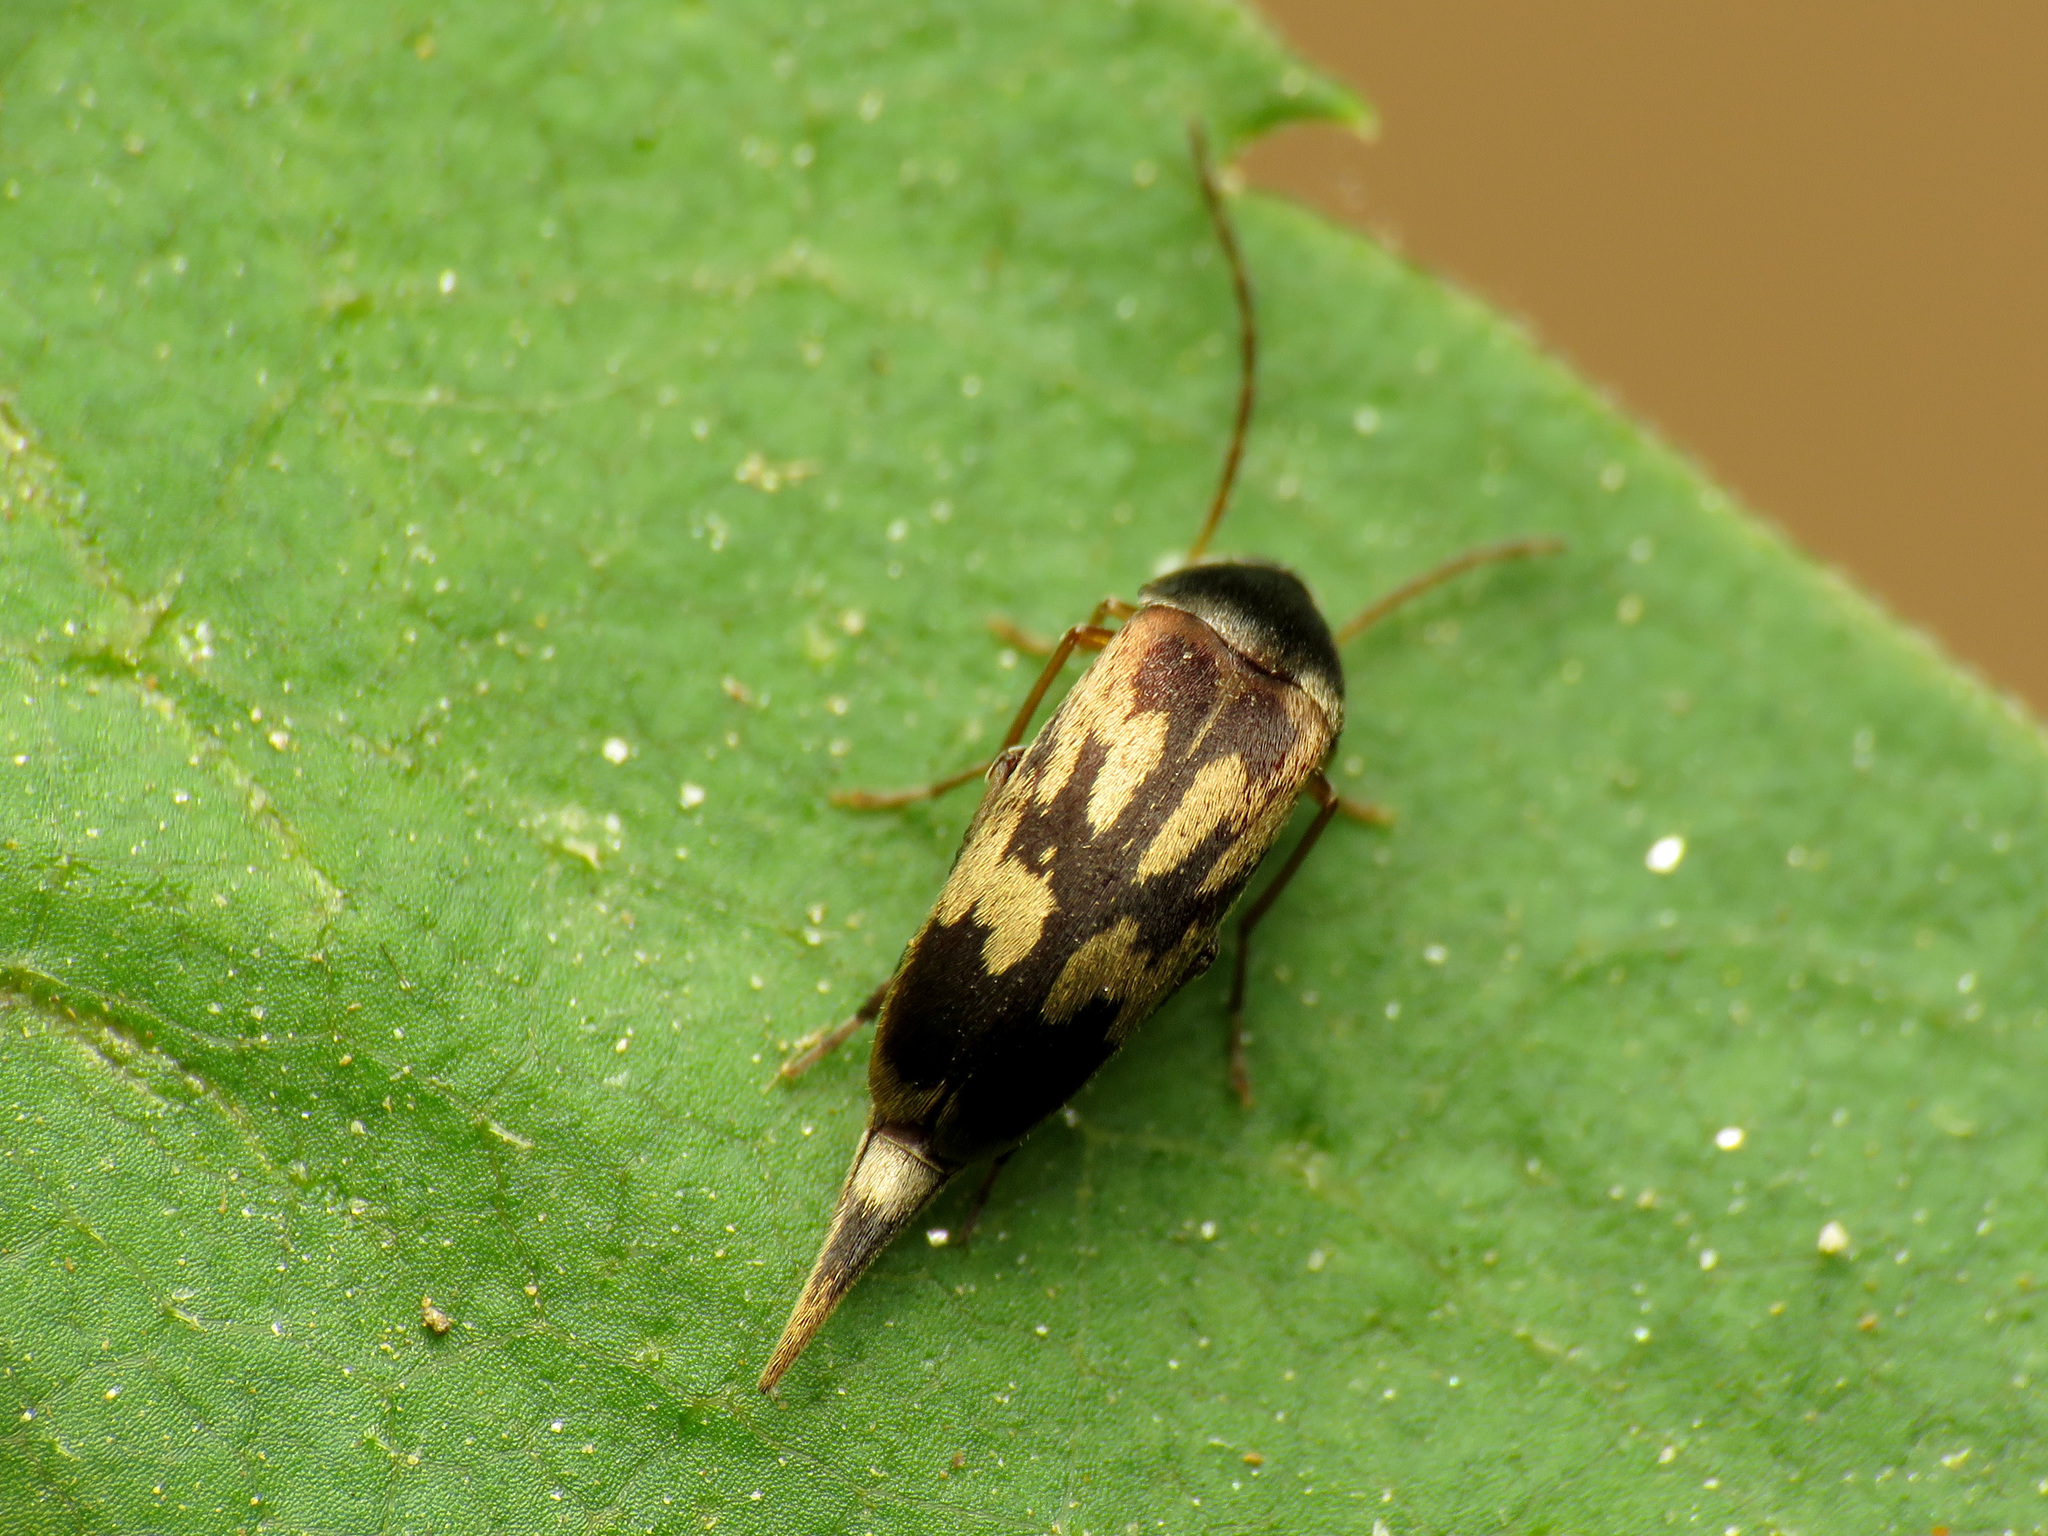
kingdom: Animalia
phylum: Arthropoda
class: Insecta
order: Coleoptera
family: Mordellidae
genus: Falsomordellistena
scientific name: Falsomordellistena bihamata
